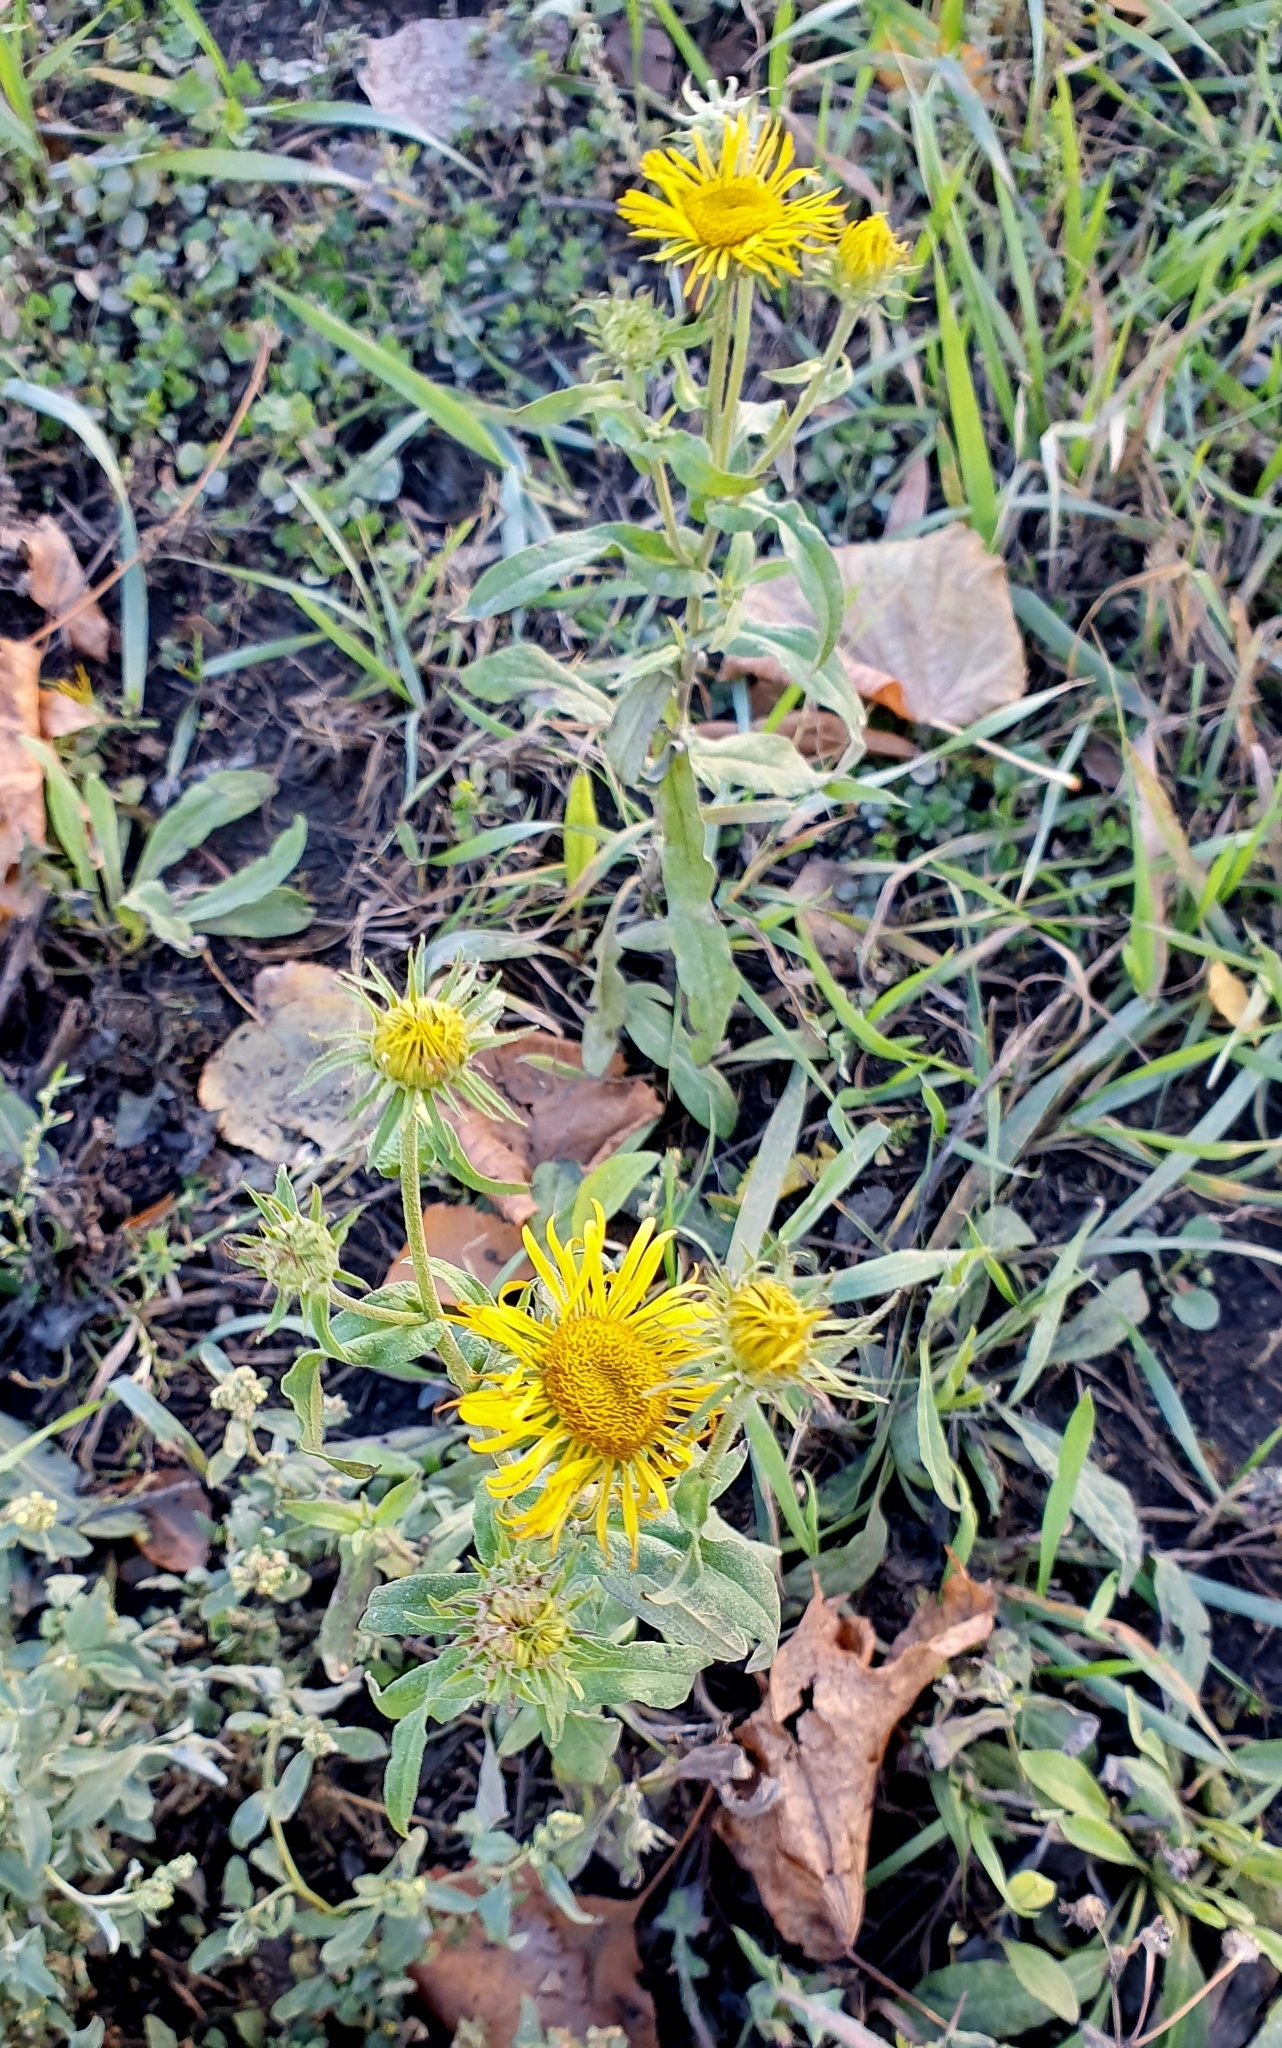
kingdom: Plantae
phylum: Tracheophyta
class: Magnoliopsida
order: Asterales
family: Asteraceae
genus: Pentanema
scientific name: Pentanema britannicum
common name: British elecampane
